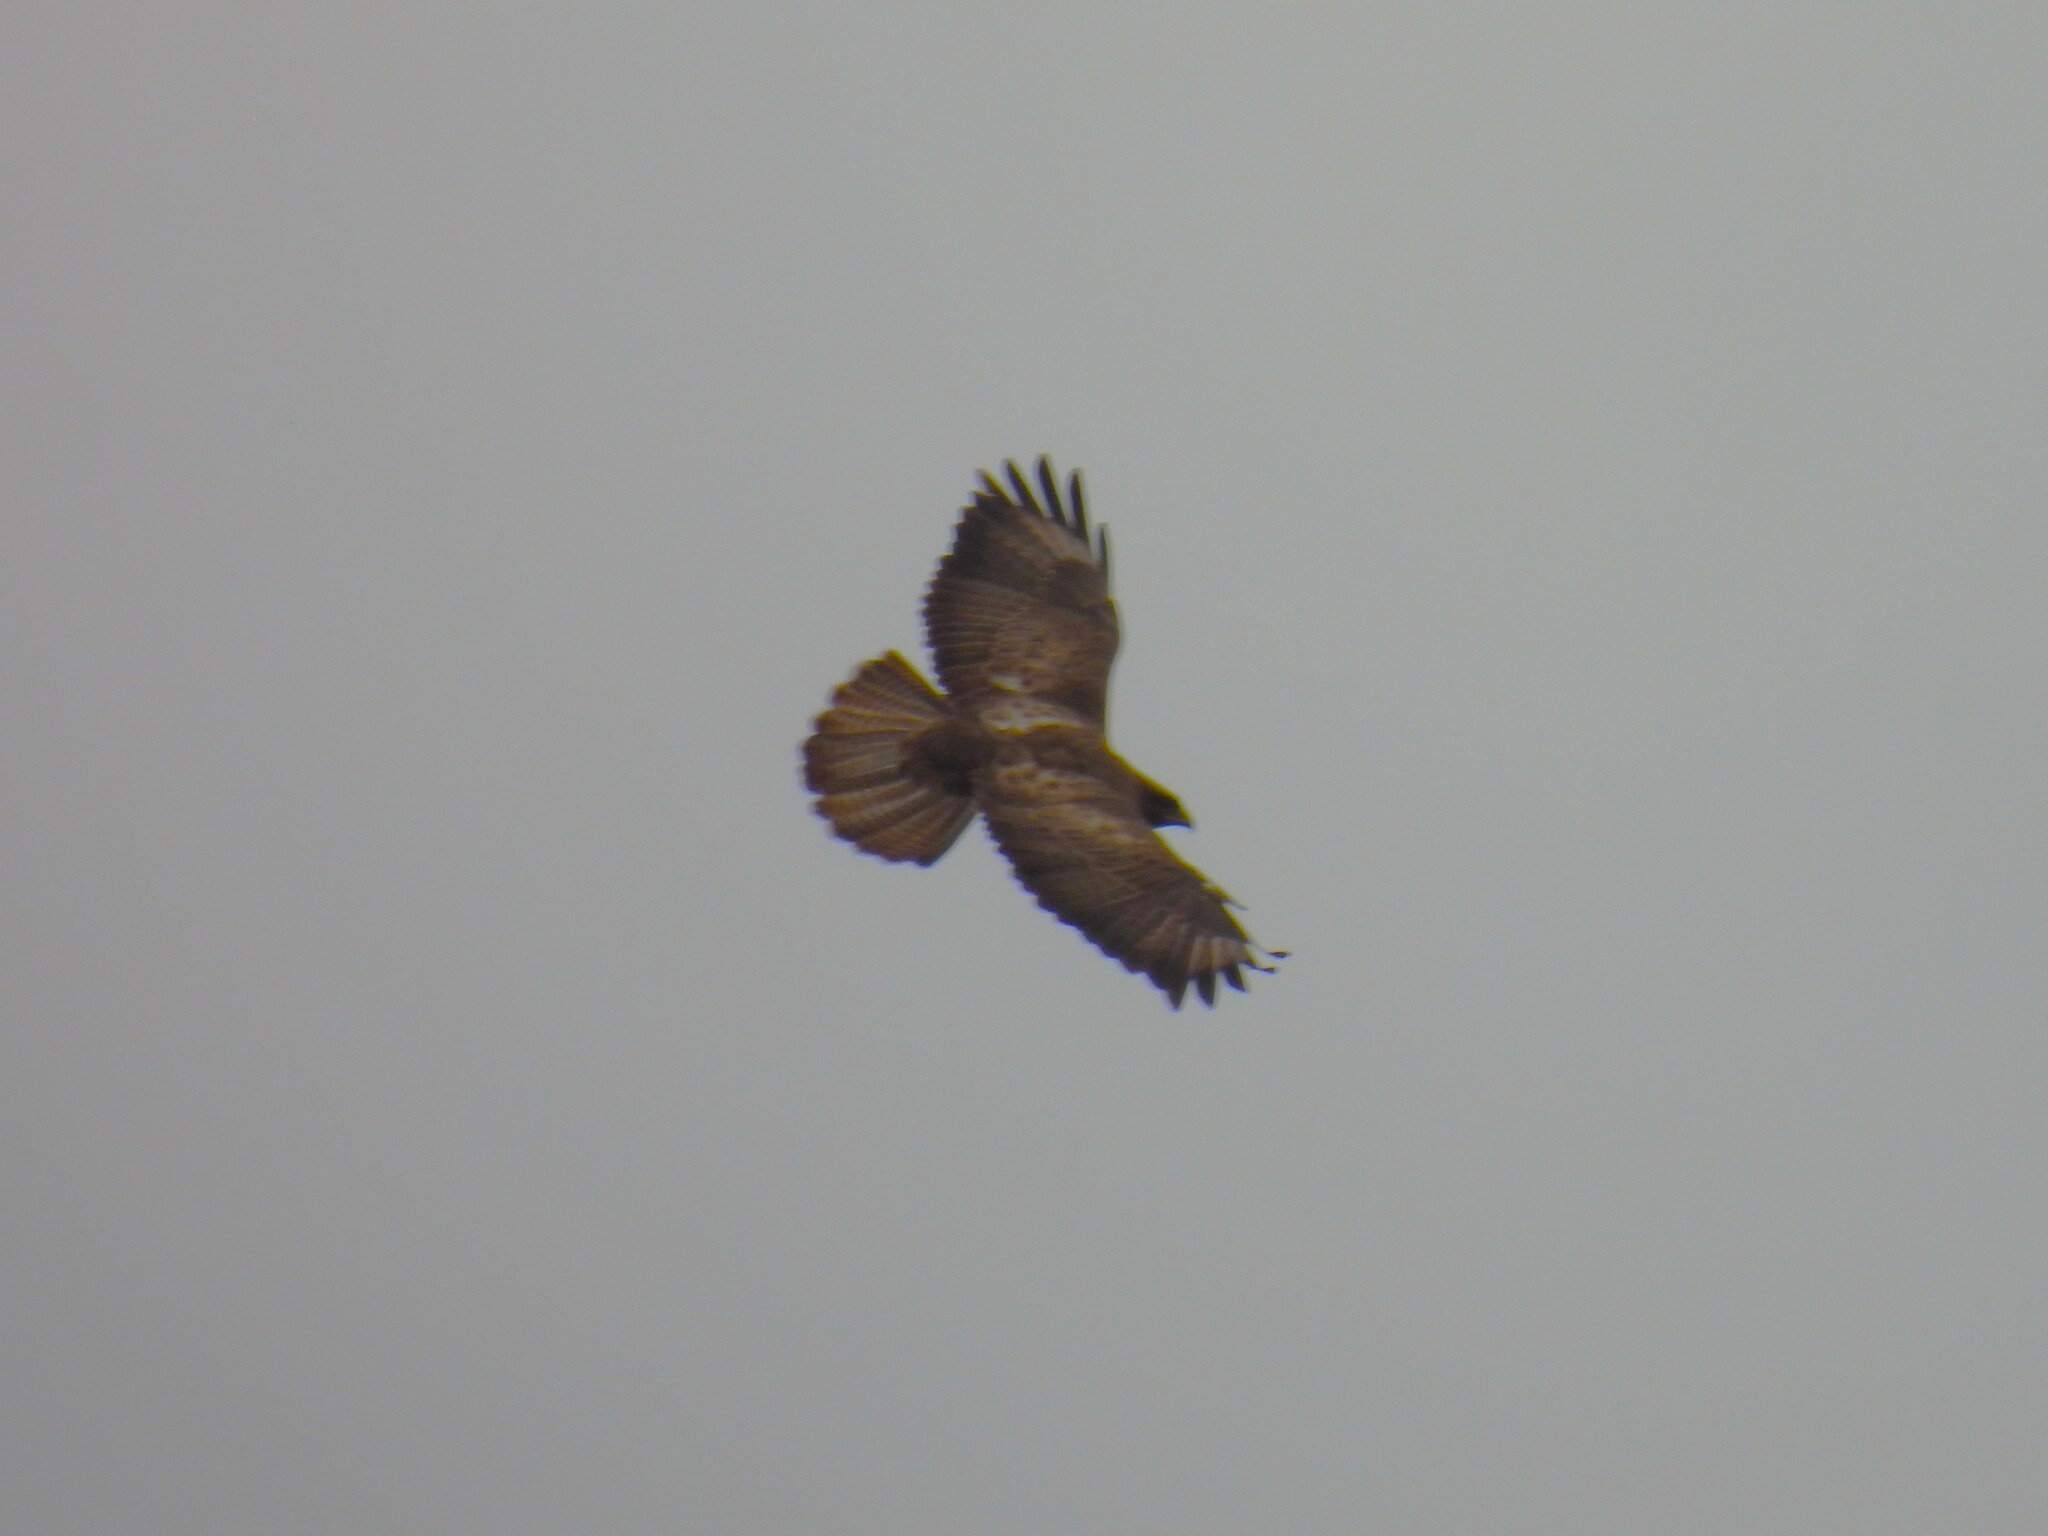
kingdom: Animalia
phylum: Chordata
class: Aves
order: Accipitriformes
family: Accipitridae
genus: Buteo
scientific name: Buteo buteo
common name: Common buzzard
